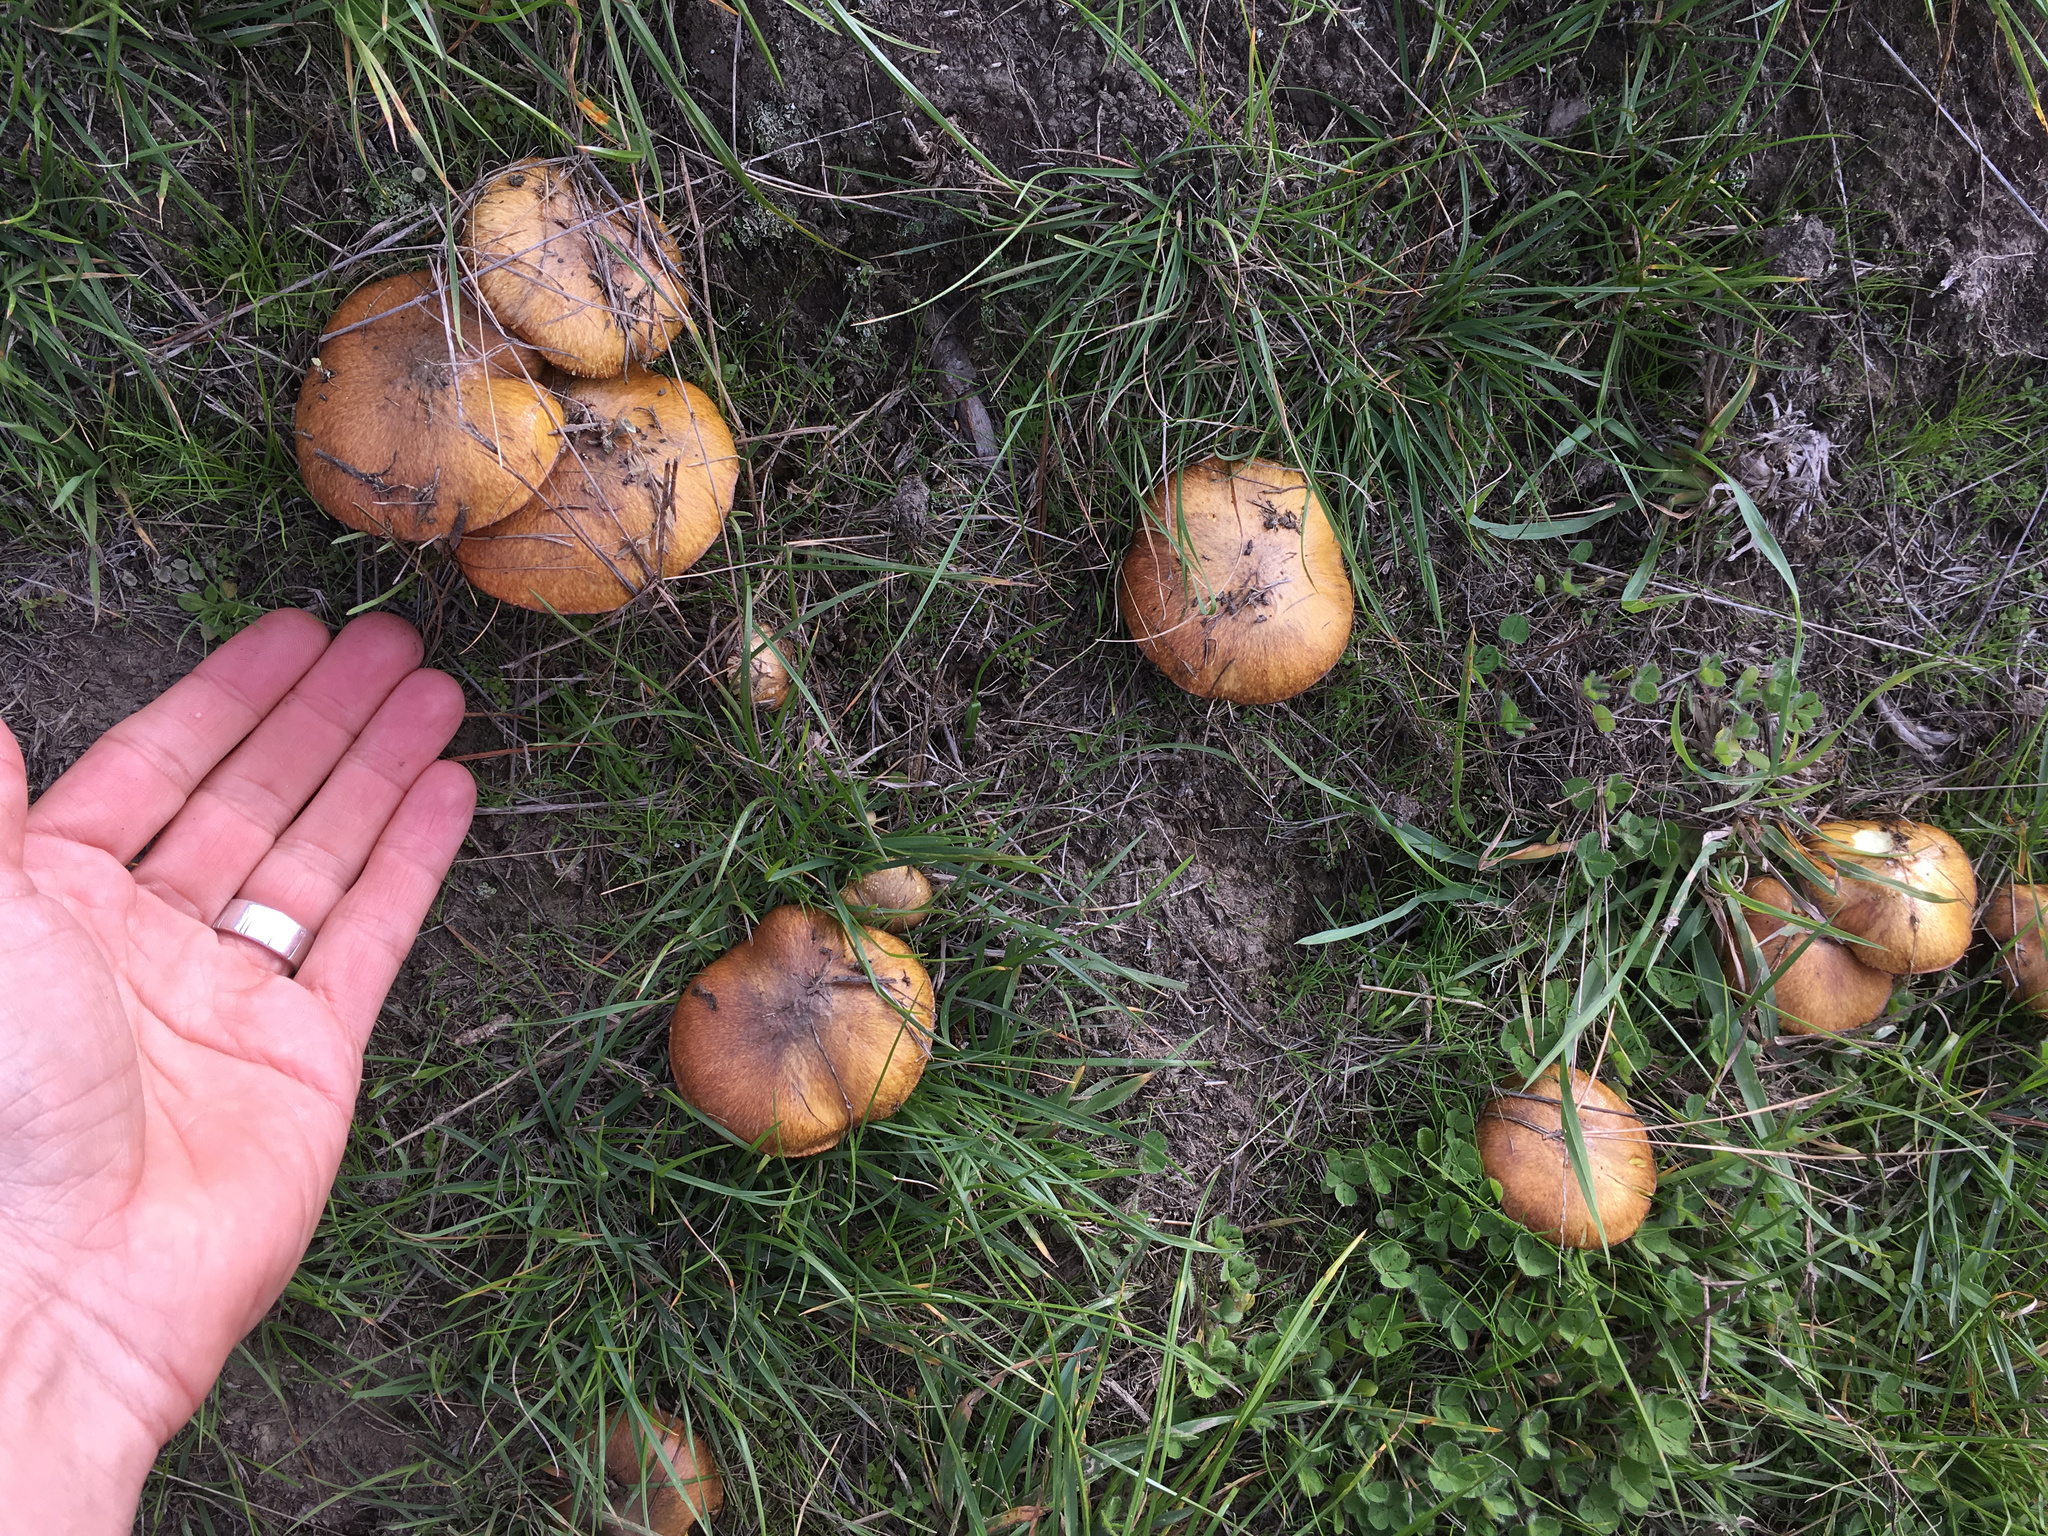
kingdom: Fungi
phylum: Basidiomycota
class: Agaricomycetes
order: Boletales
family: Suillaceae
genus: Suillus
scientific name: Suillus luteus
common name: Slippery jack
